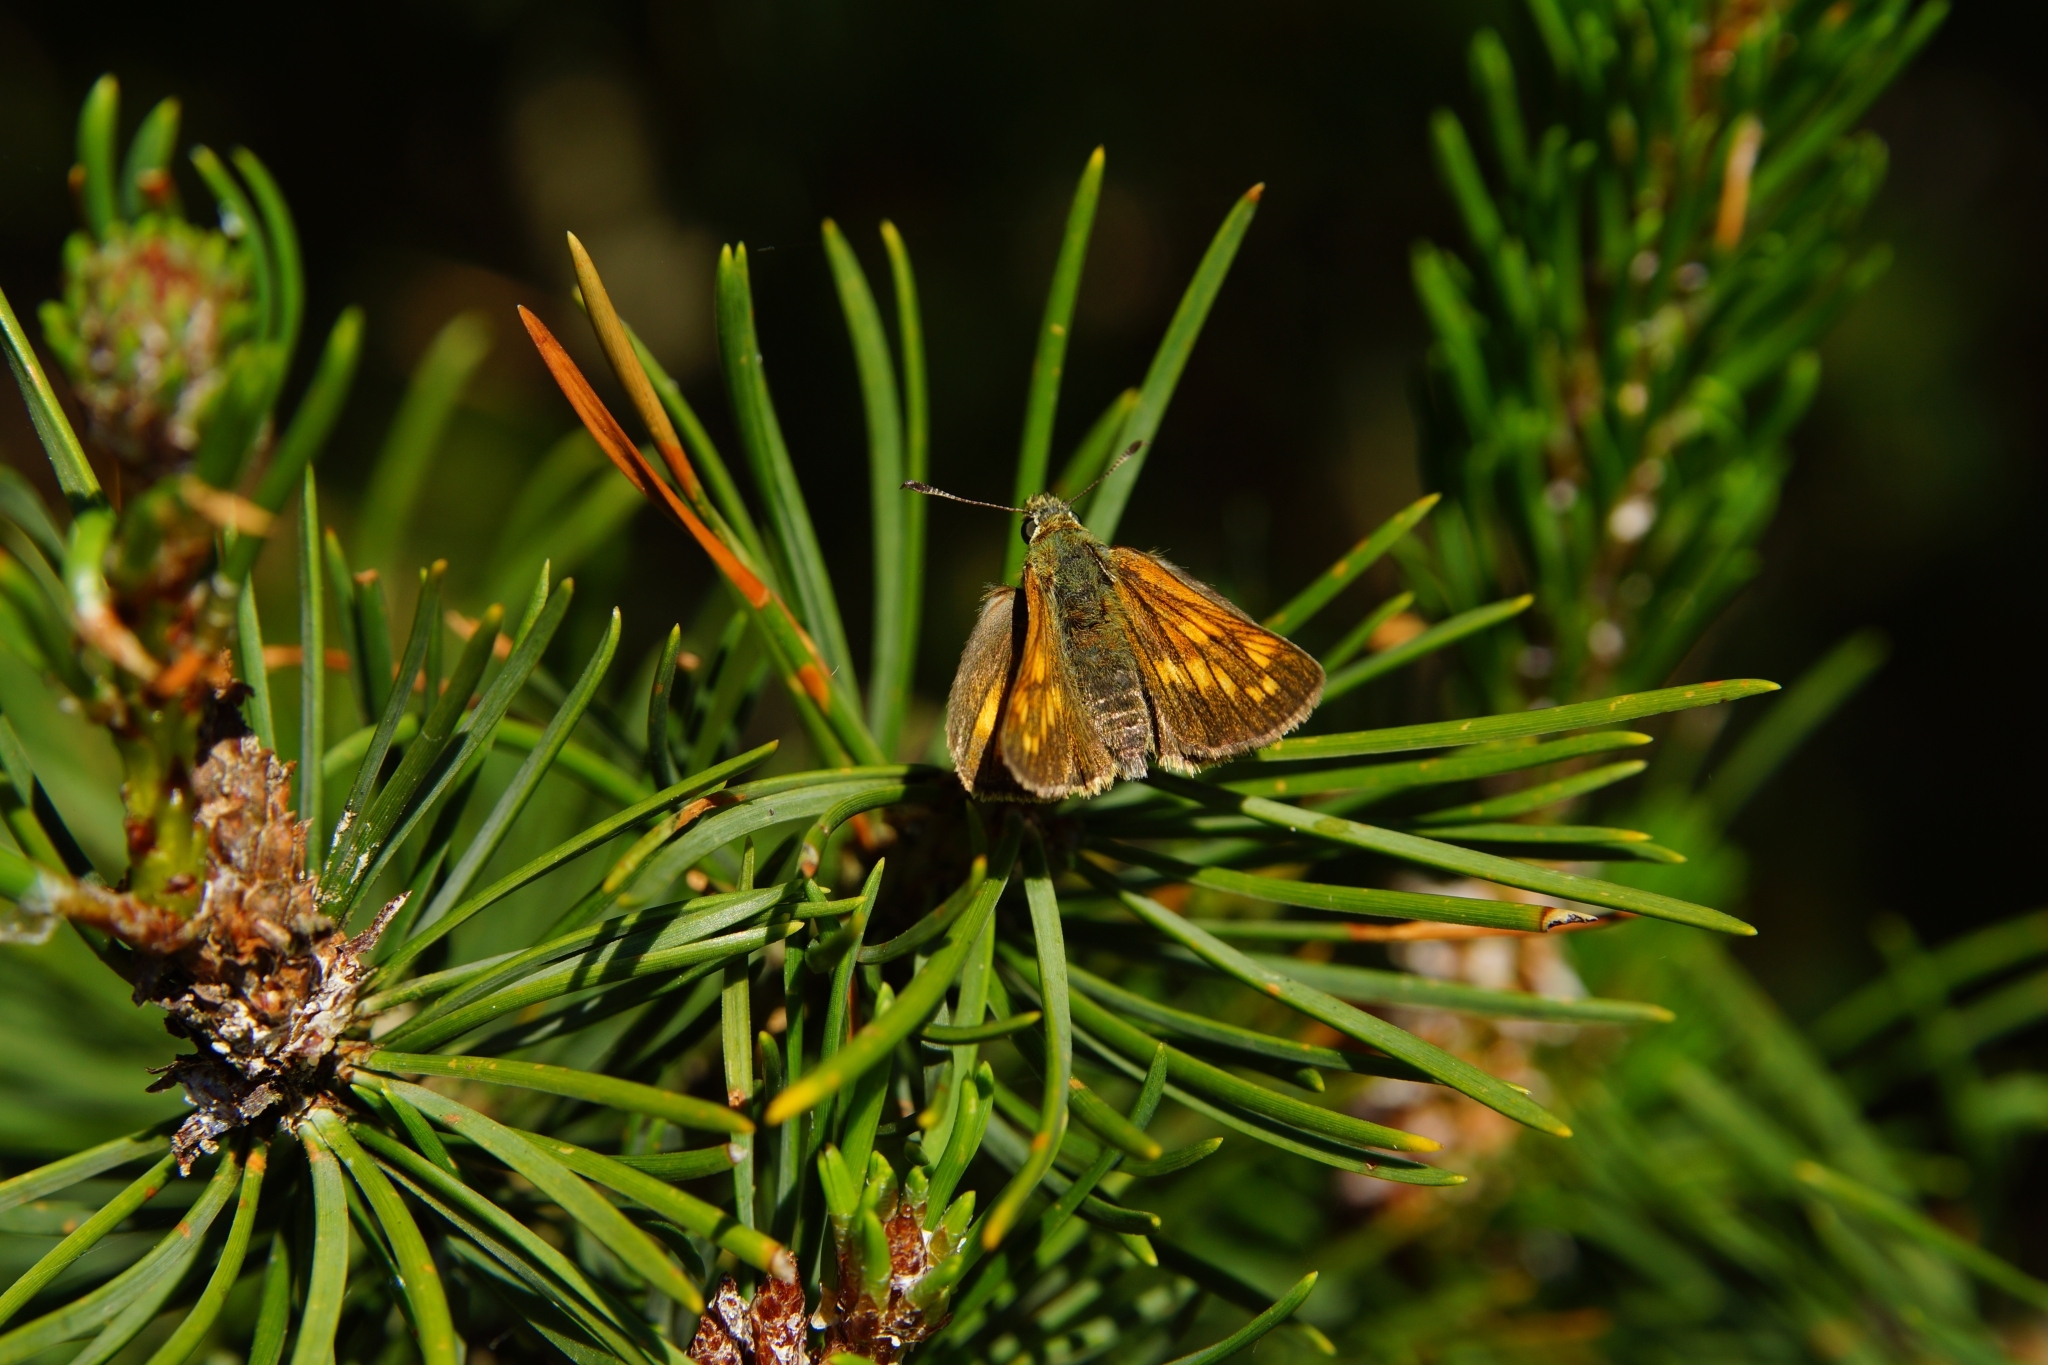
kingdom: Animalia
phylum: Arthropoda
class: Insecta
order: Lepidoptera
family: Hesperiidae
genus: Ochlodes
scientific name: Ochlodes venata
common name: Large skipper
